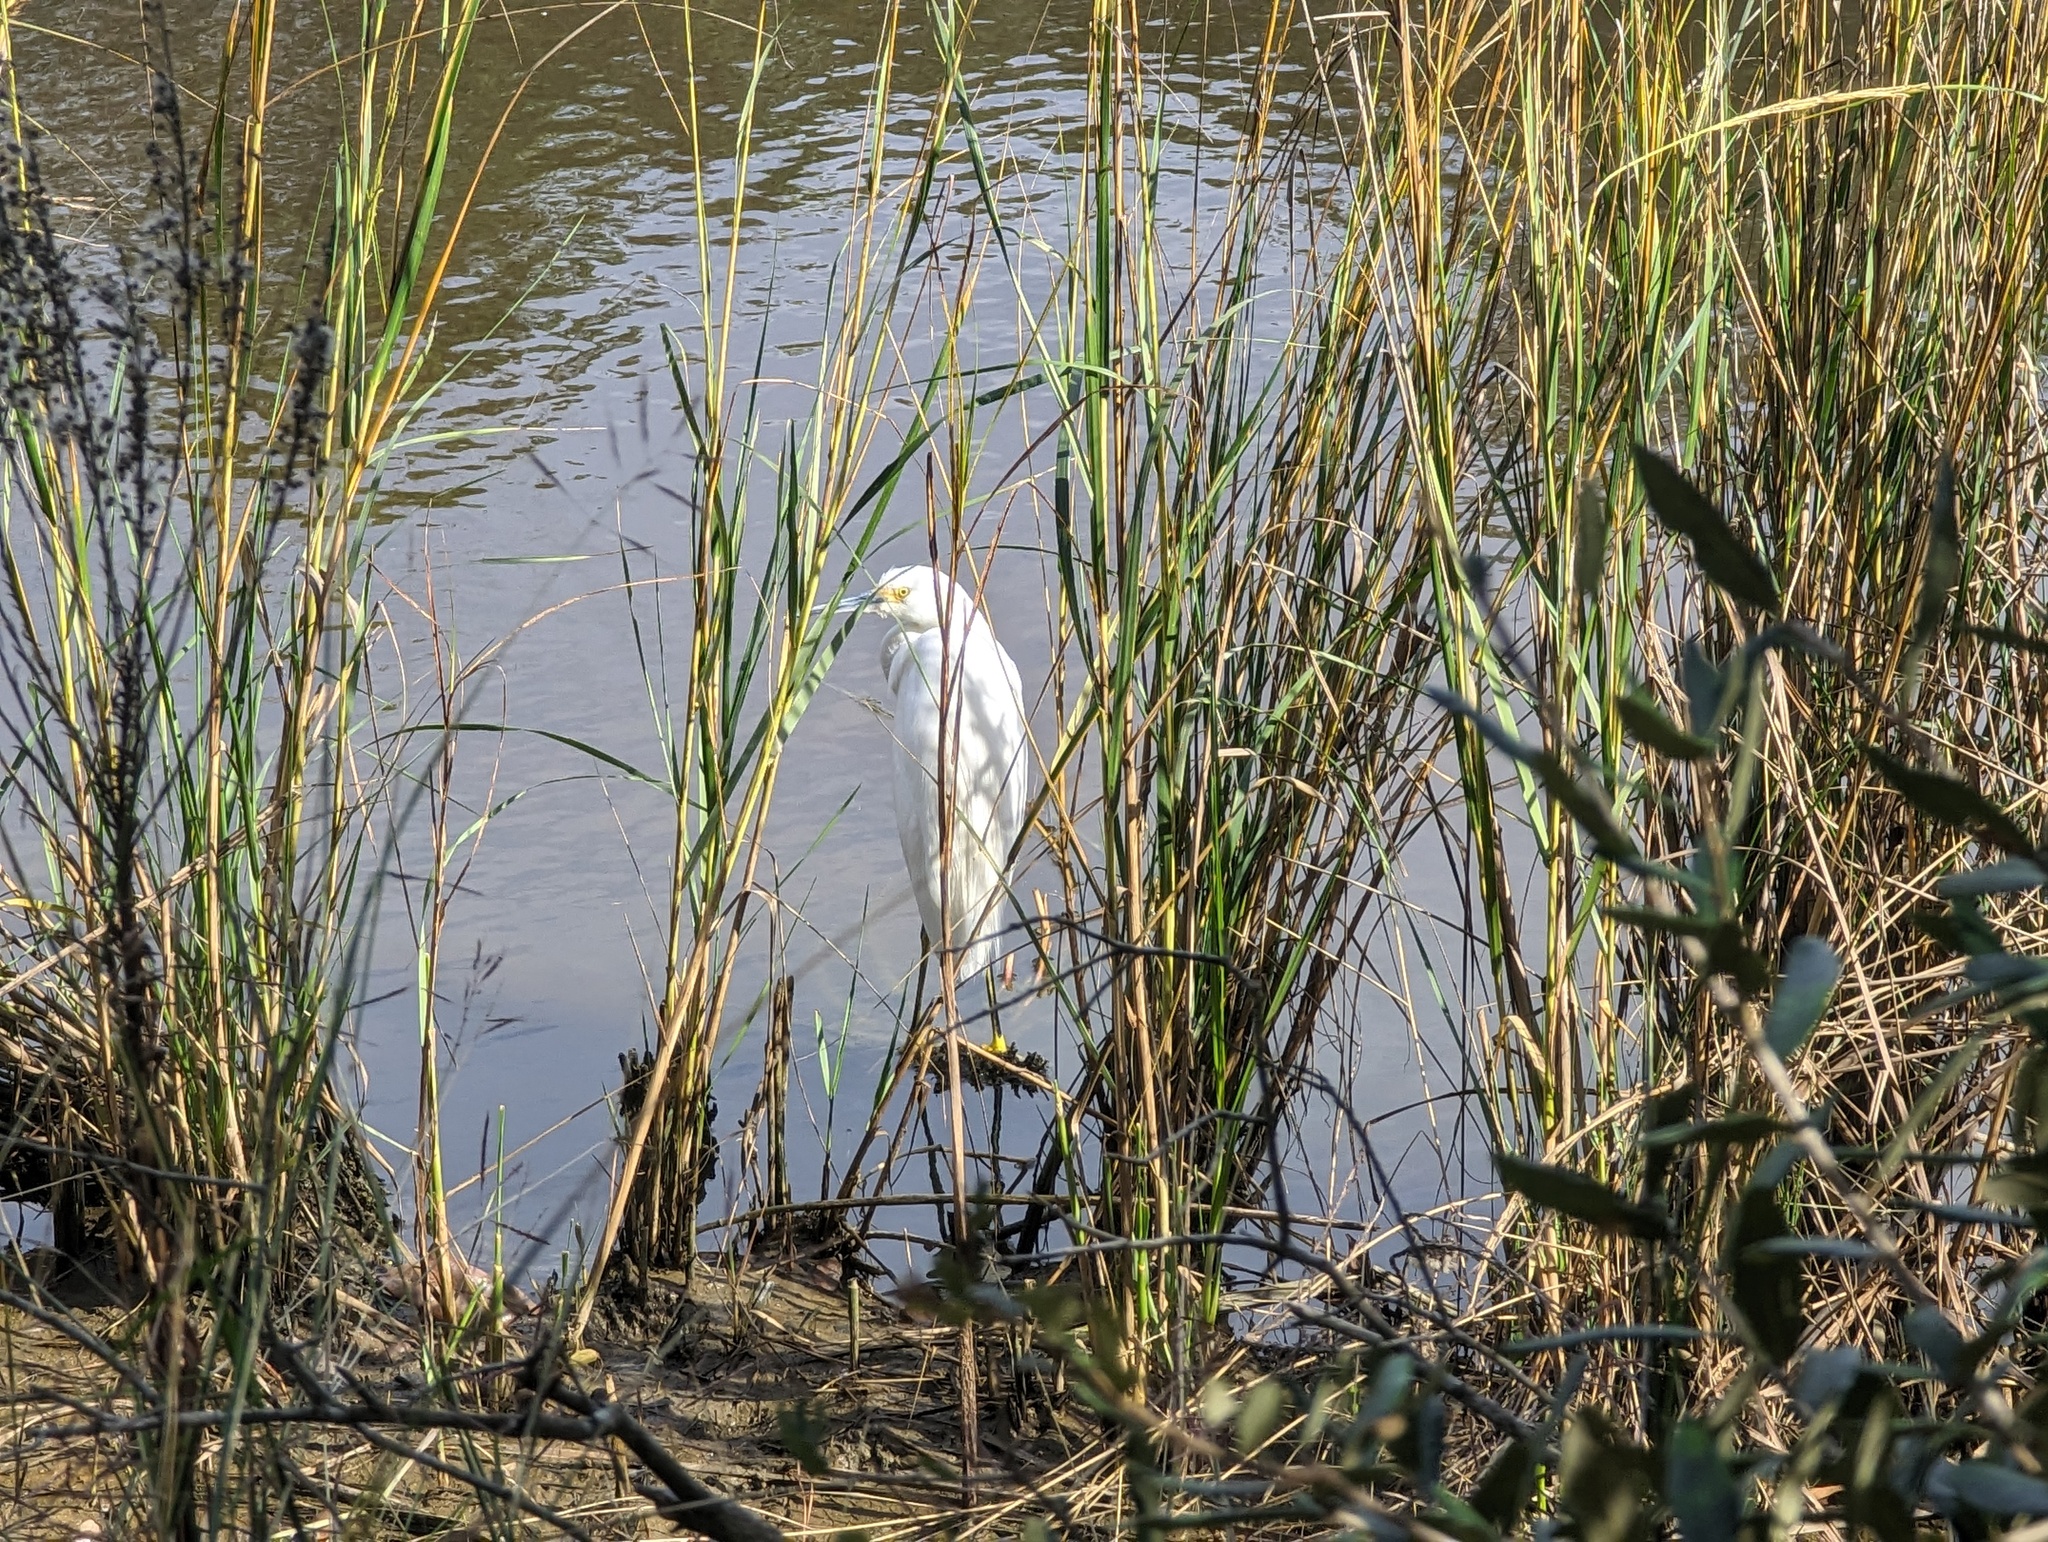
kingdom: Animalia
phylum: Chordata
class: Aves
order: Pelecaniformes
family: Ardeidae
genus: Egretta
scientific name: Egretta thula
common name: Snowy egret
